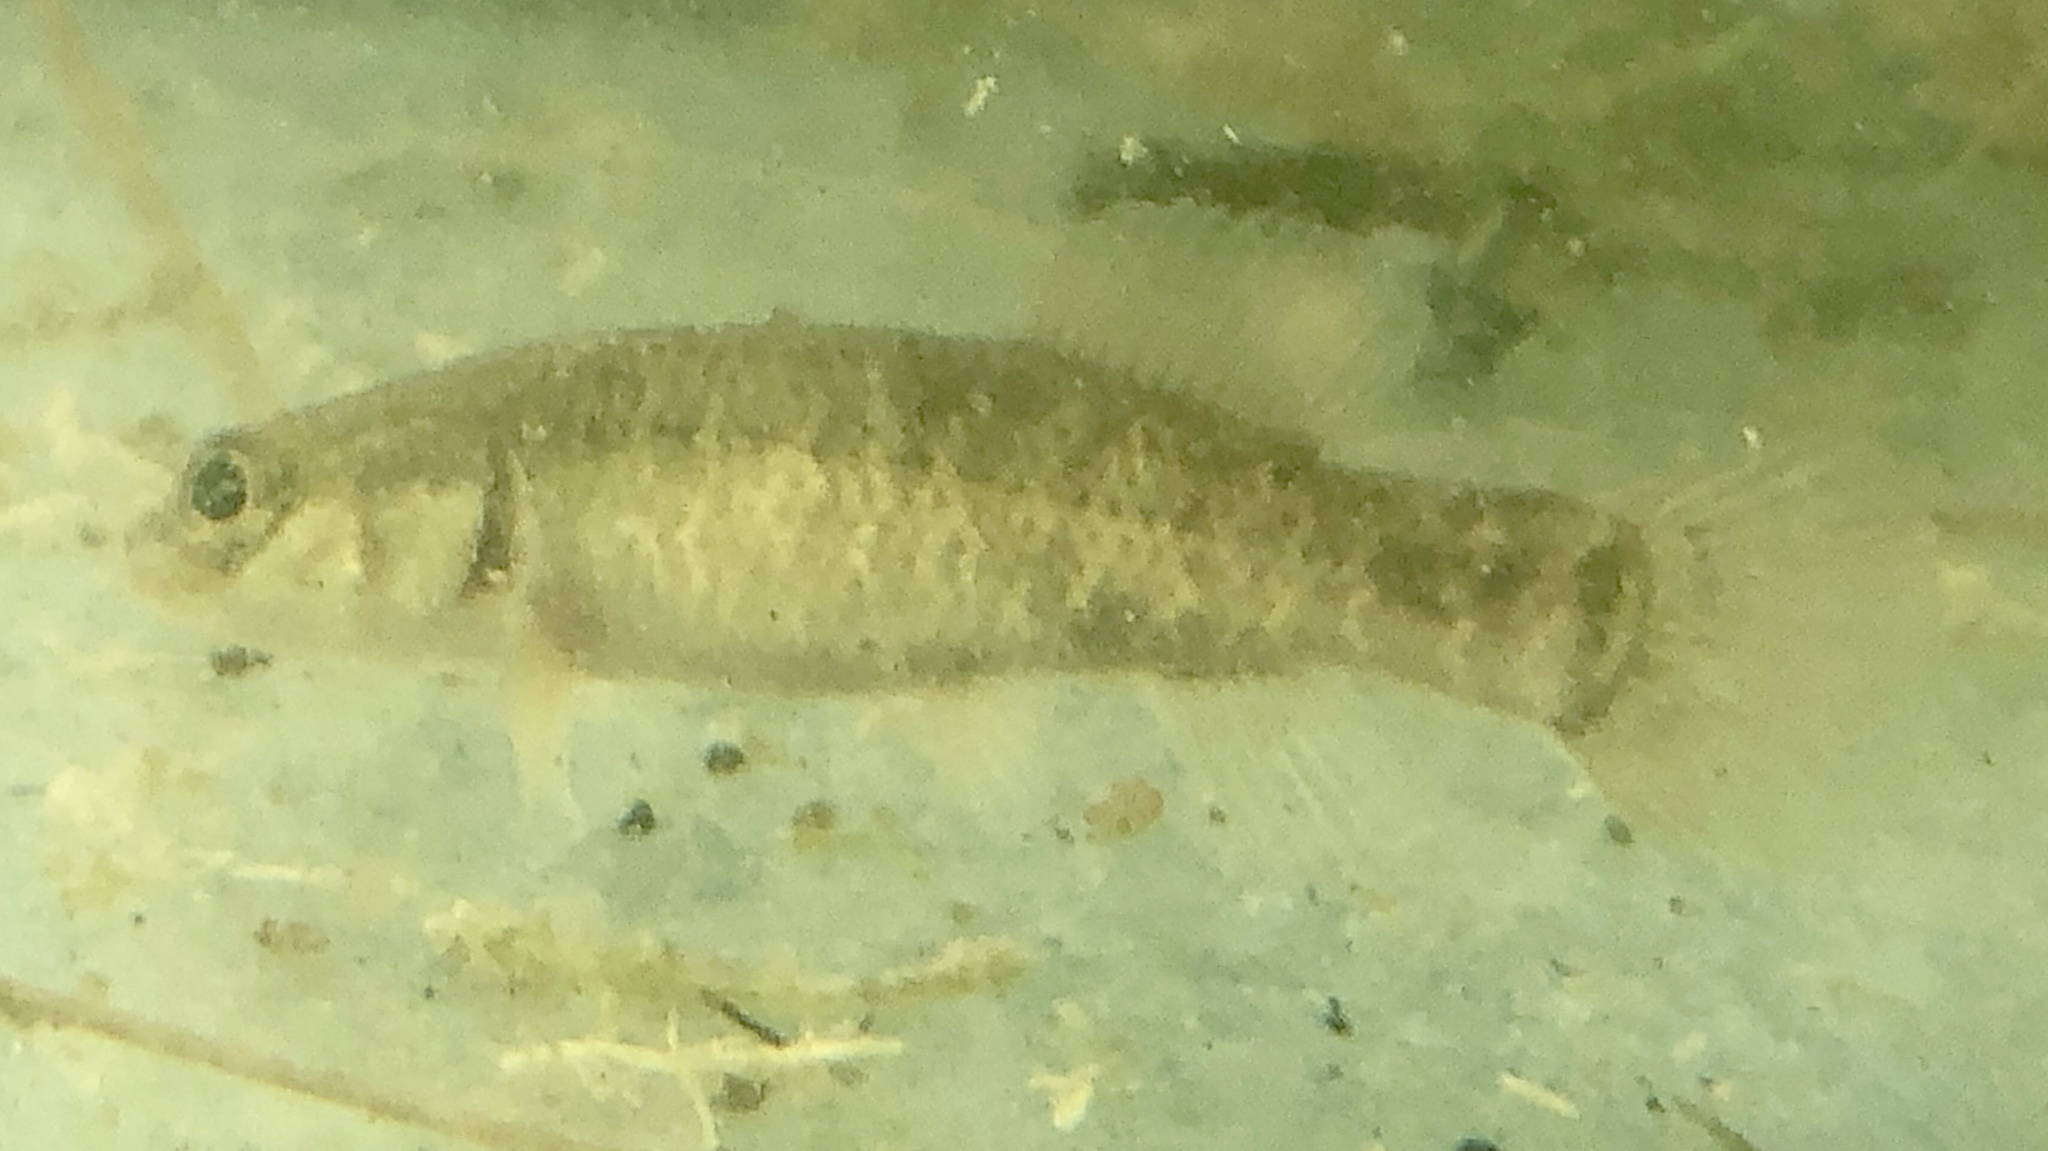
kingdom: Animalia
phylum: Chordata
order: Esociformes
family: Umbridae
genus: Umbra
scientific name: Umbra limi
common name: Central mudminnow
